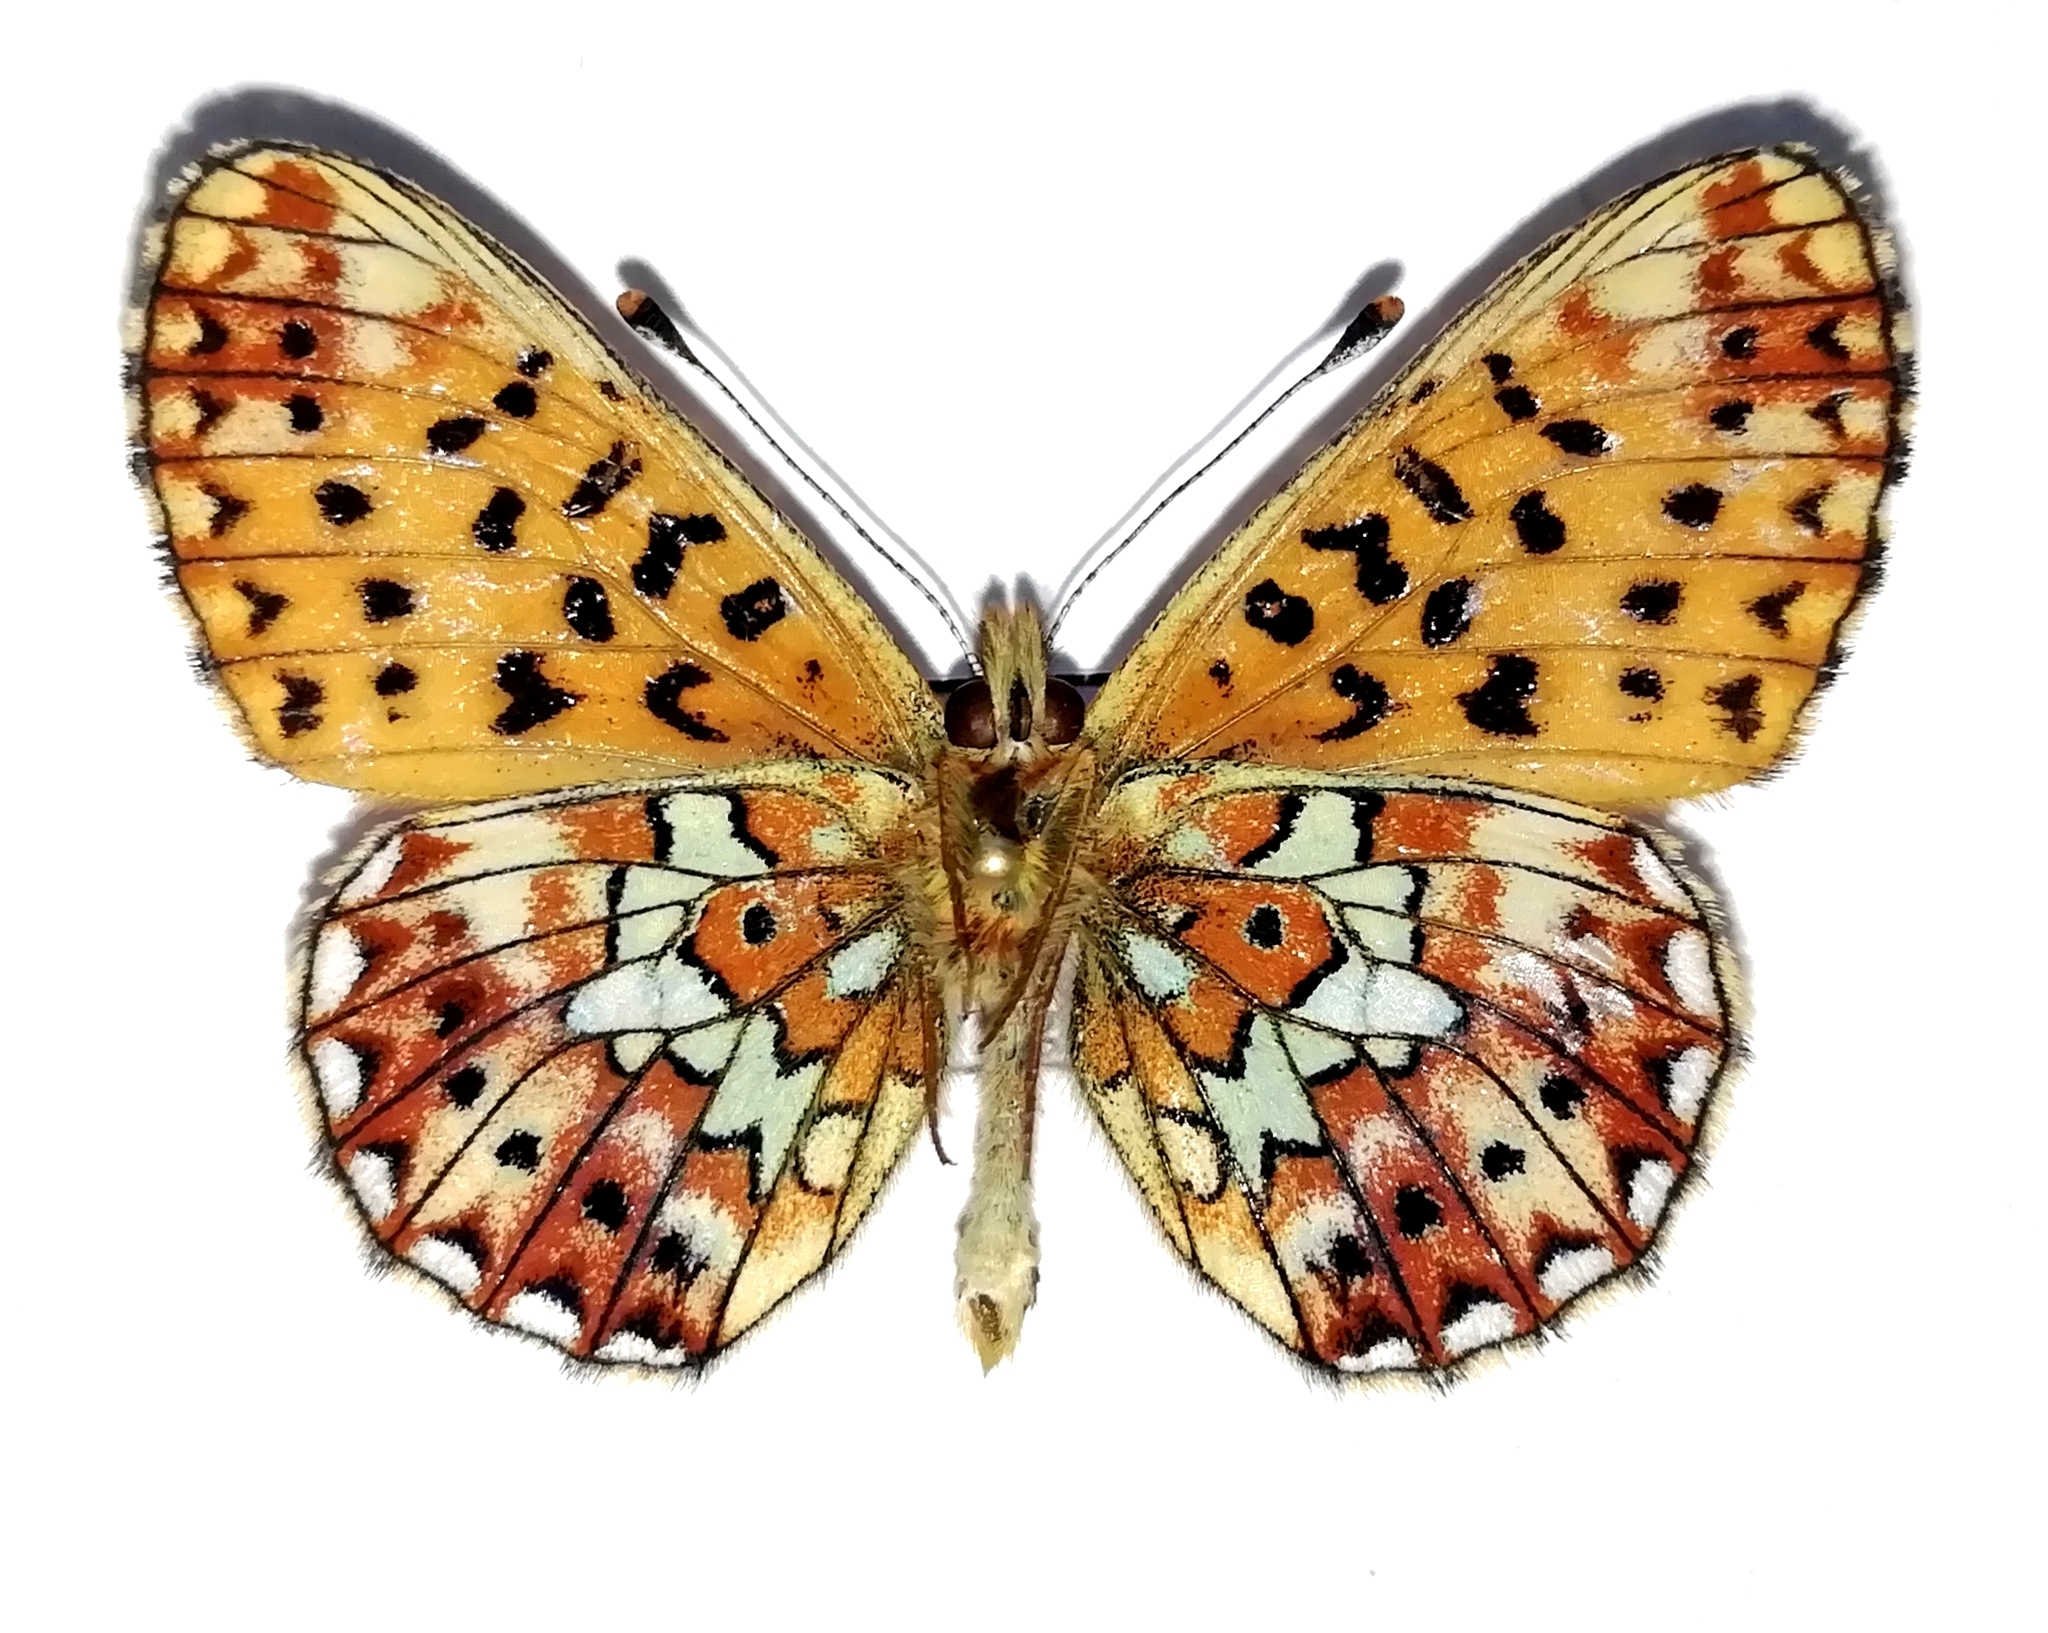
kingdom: Animalia
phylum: Arthropoda
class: Insecta
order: Lepidoptera
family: Nymphalidae
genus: Clossiana
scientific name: Clossiana euphrosyne
